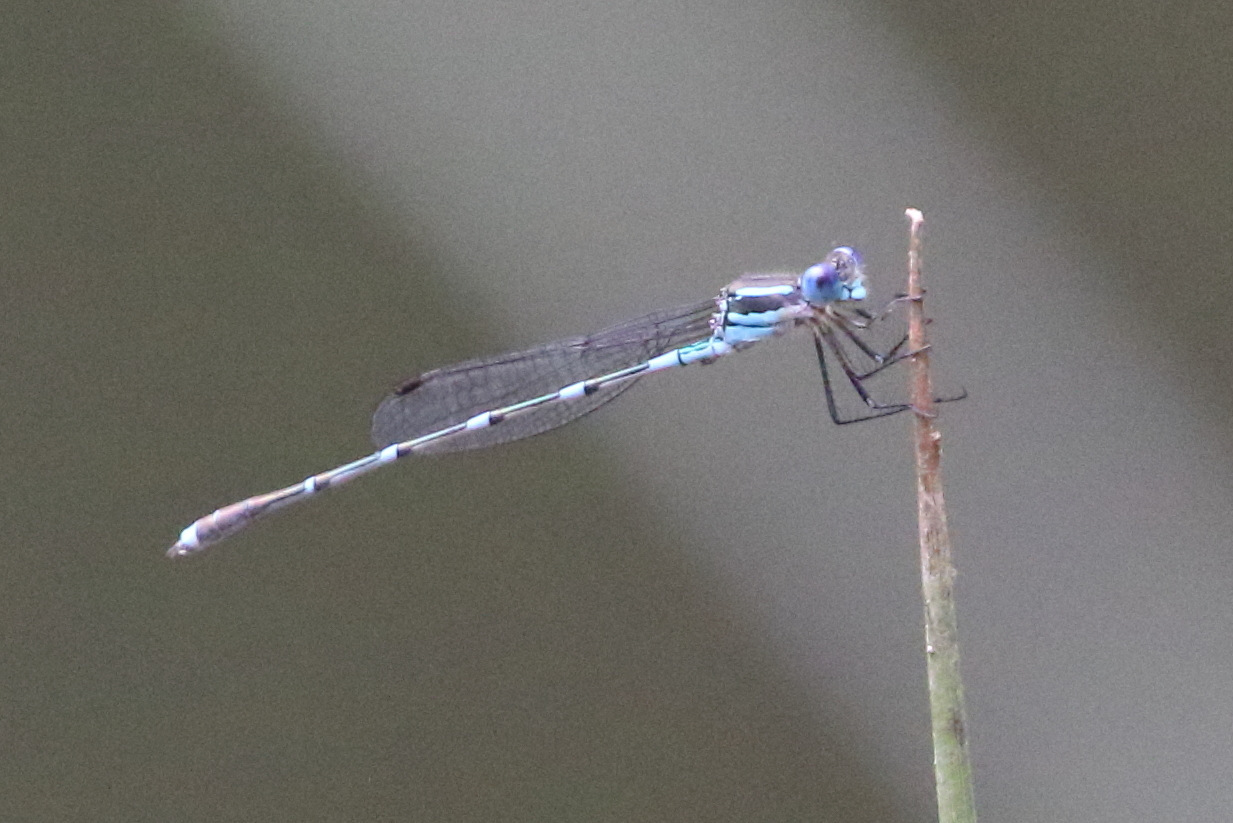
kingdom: Animalia
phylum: Arthropoda
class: Insecta
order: Odonata
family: Lestidae
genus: Austrolestes
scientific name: Austrolestes leda
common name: Wandering ringtail
